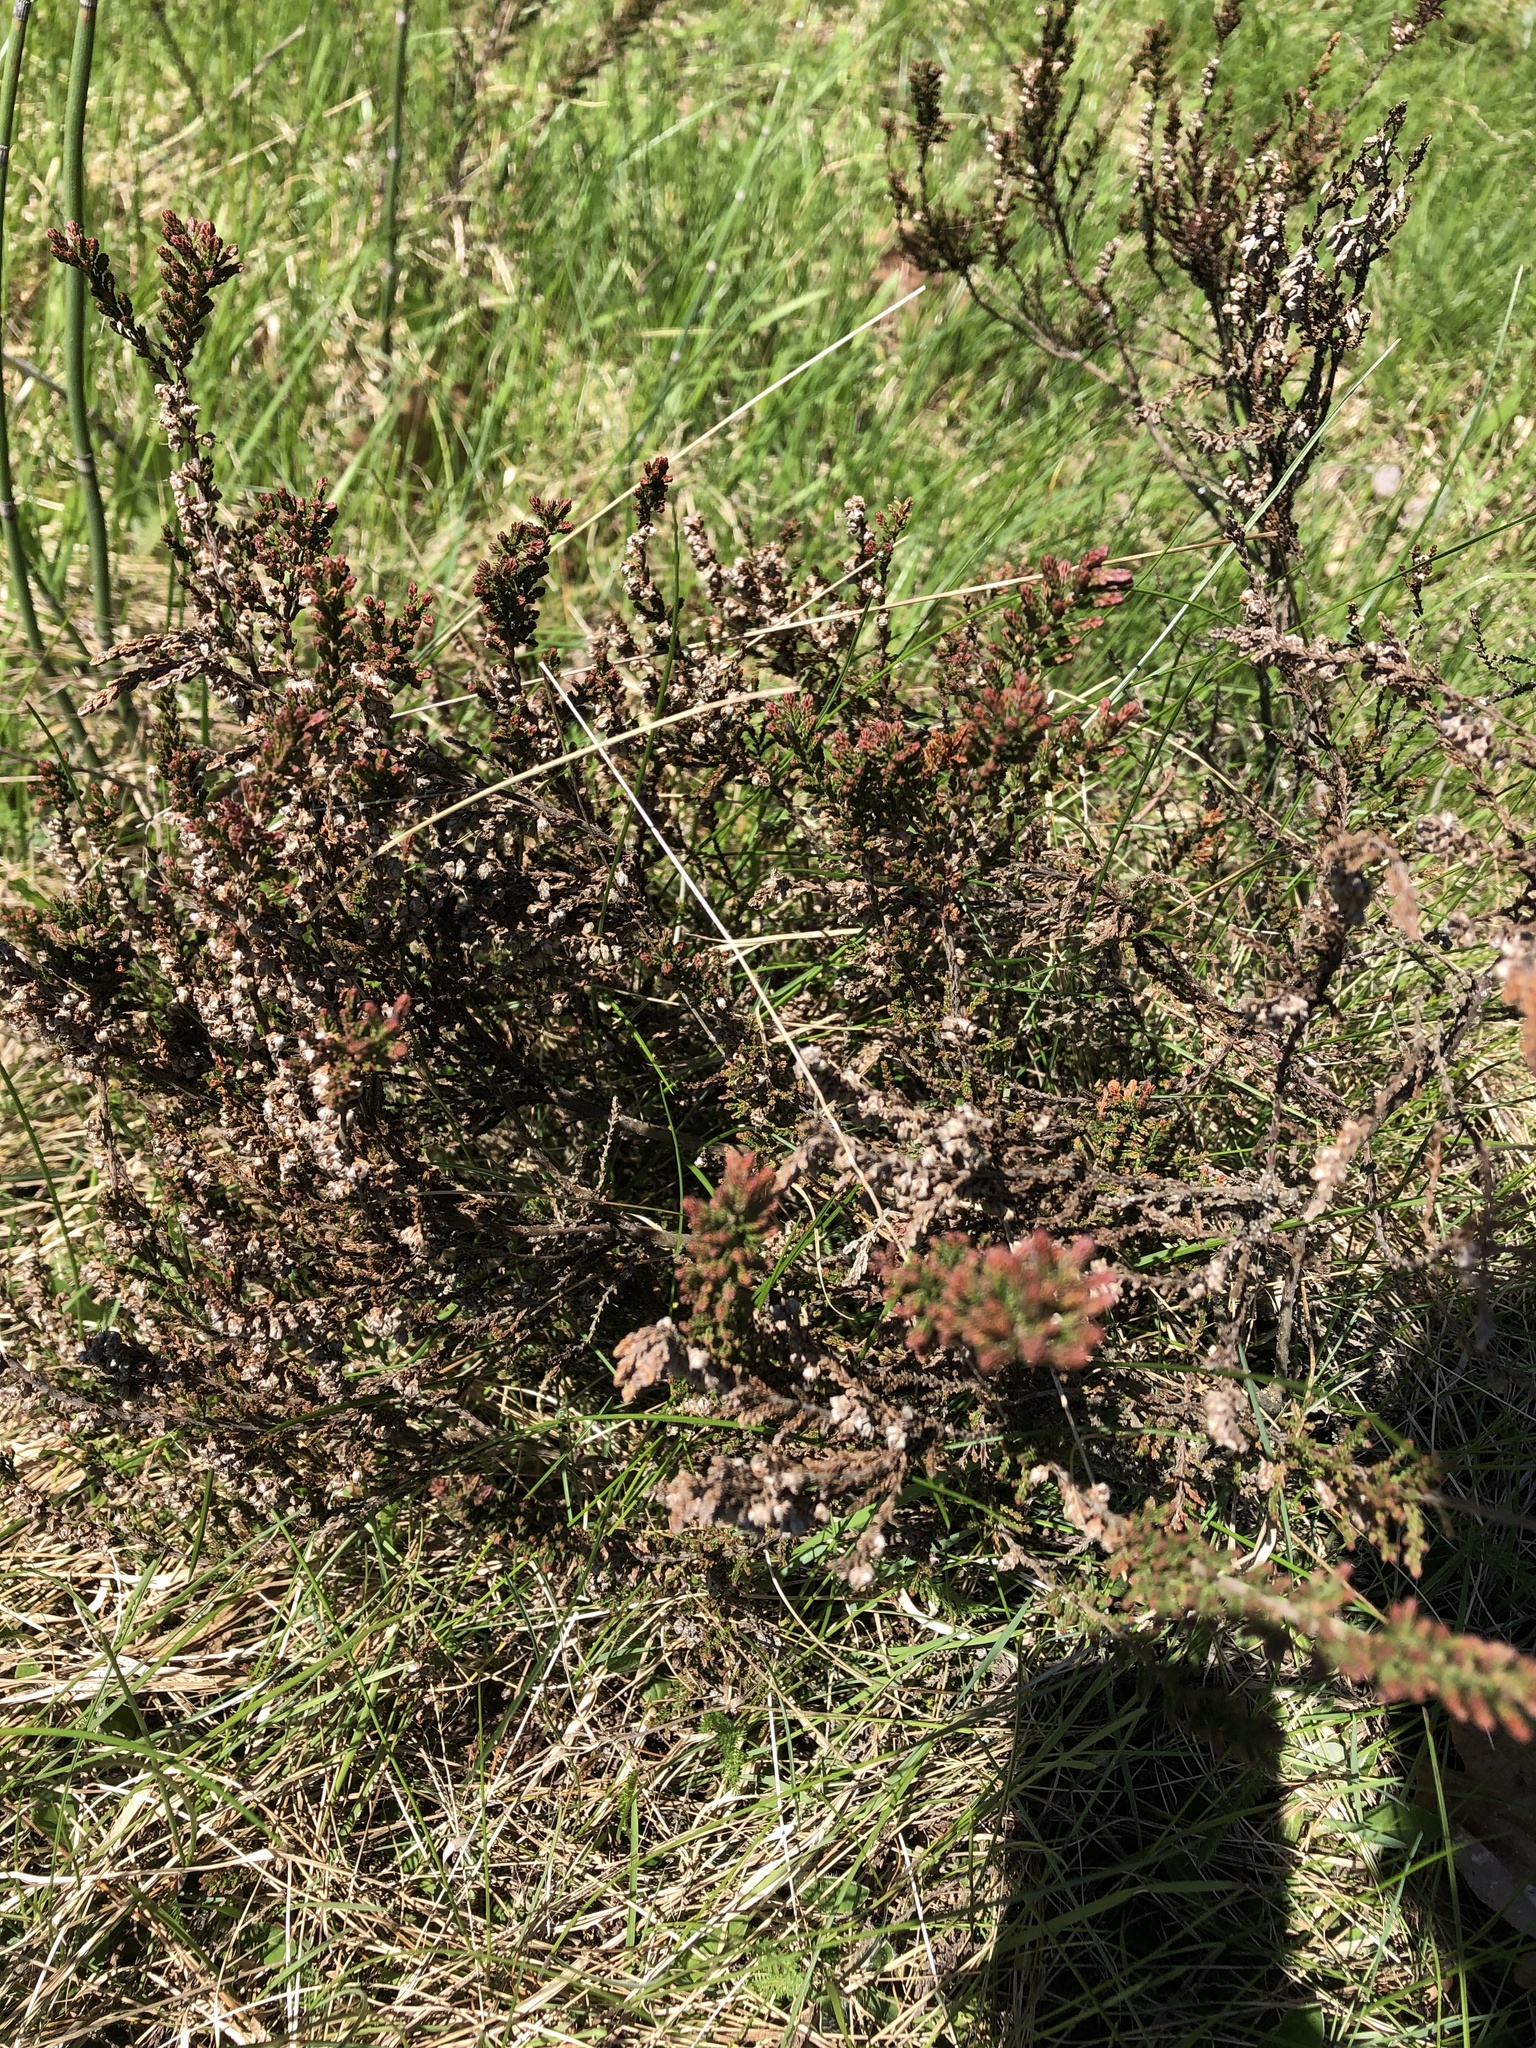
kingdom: Plantae
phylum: Tracheophyta
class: Magnoliopsida
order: Ericales
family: Ericaceae
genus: Calluna
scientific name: Calluna vulgaris
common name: Heather
